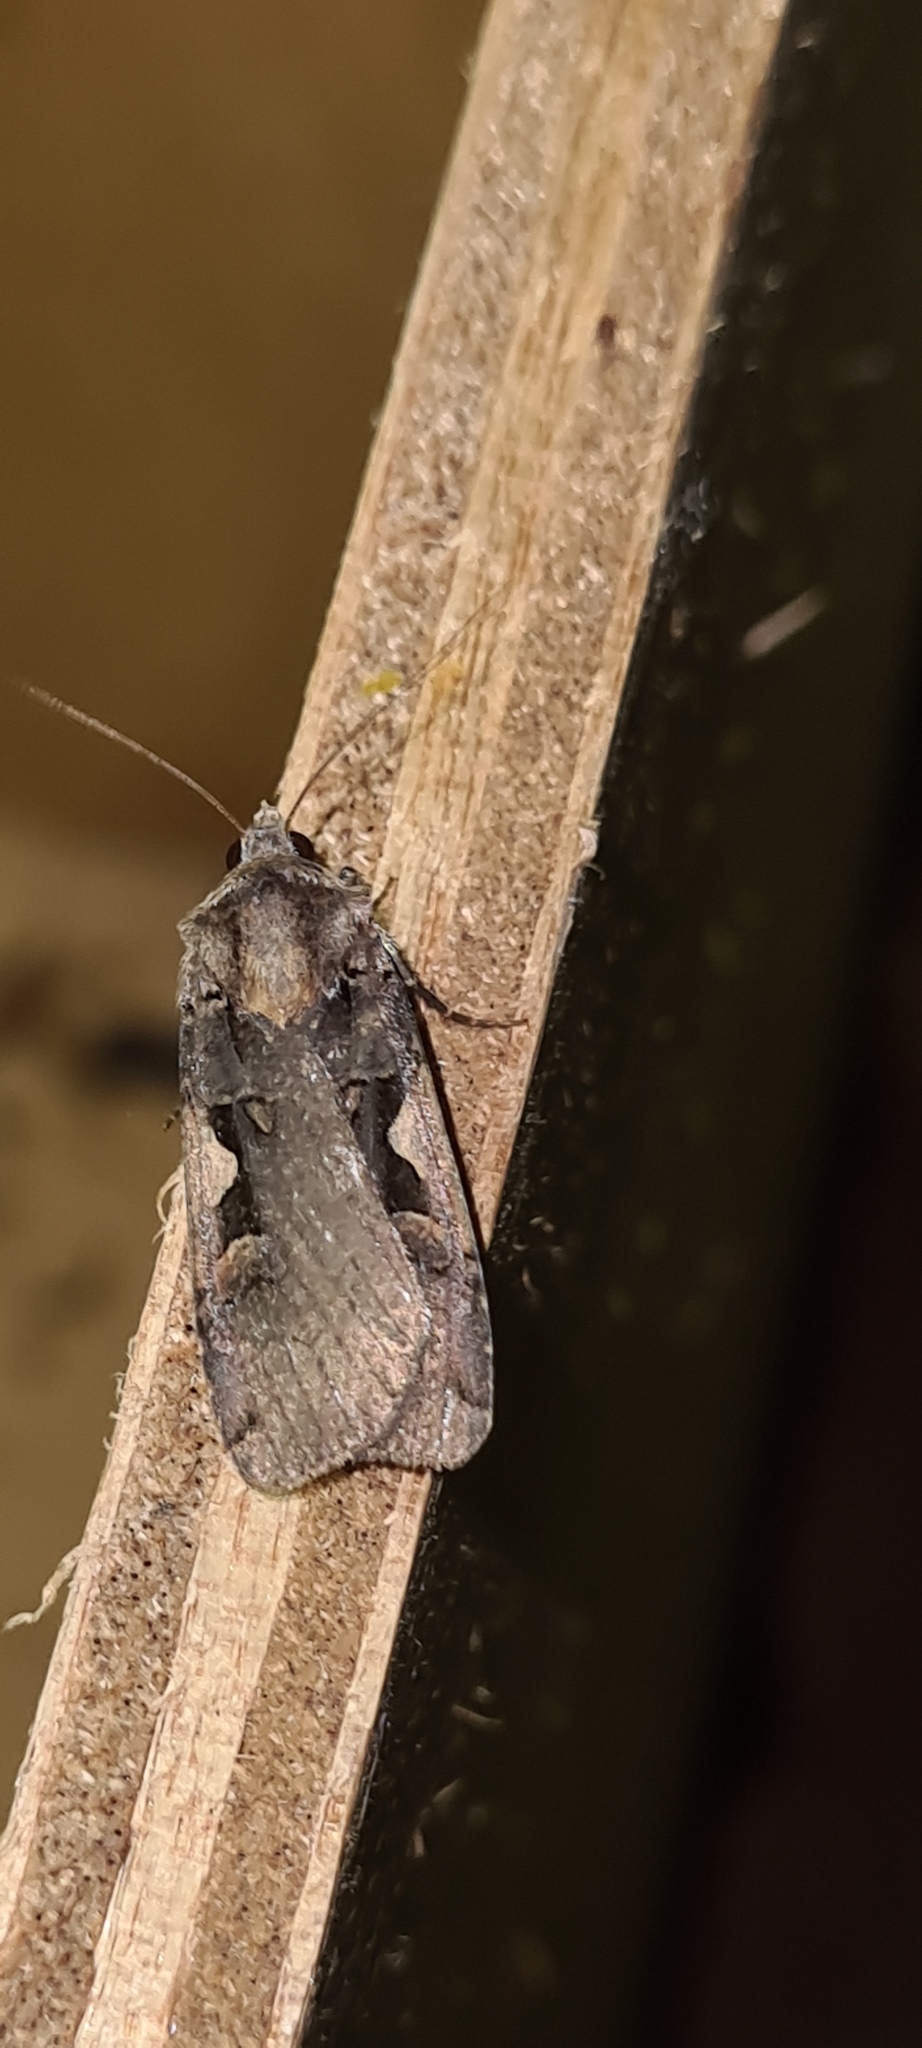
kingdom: Animalia
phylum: Arthropoda
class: Insecta
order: Lepidoptera
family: Noctuidae
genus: Xestia
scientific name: Xestia c-nigrum
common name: Setaceous hebrew character
